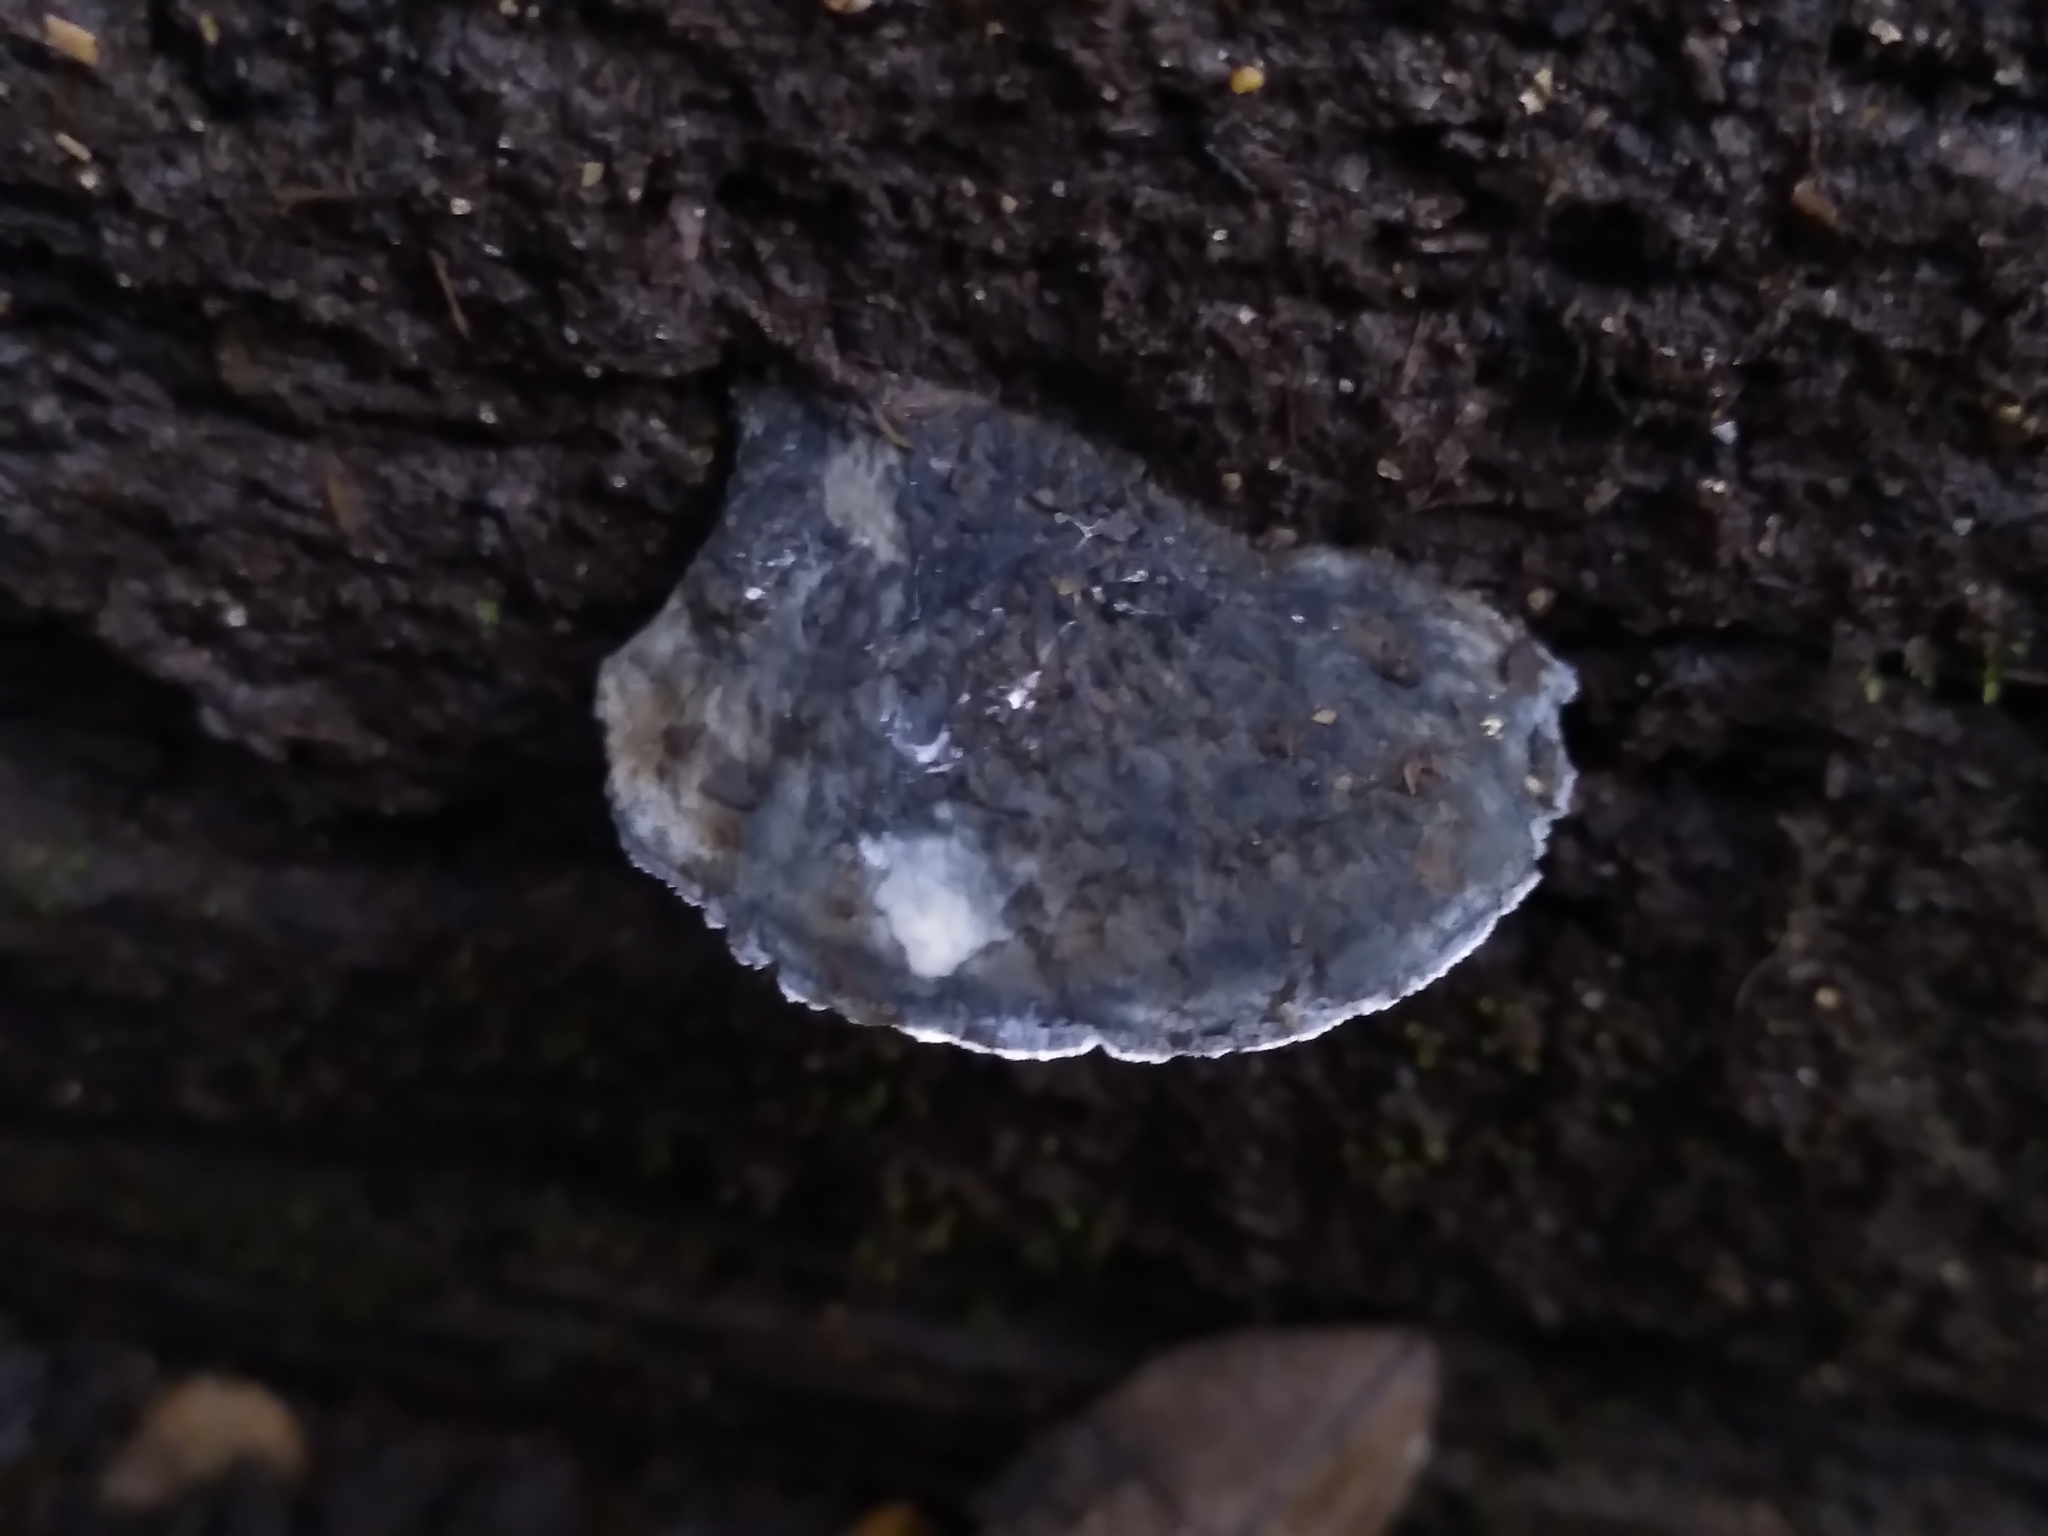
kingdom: Fungi
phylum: Basidiomycota
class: Agaricomycetes
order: Polyporales
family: Polyporaceae
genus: Cyanosporus
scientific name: Cyanosporus caesius
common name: Blue cheese polypore
